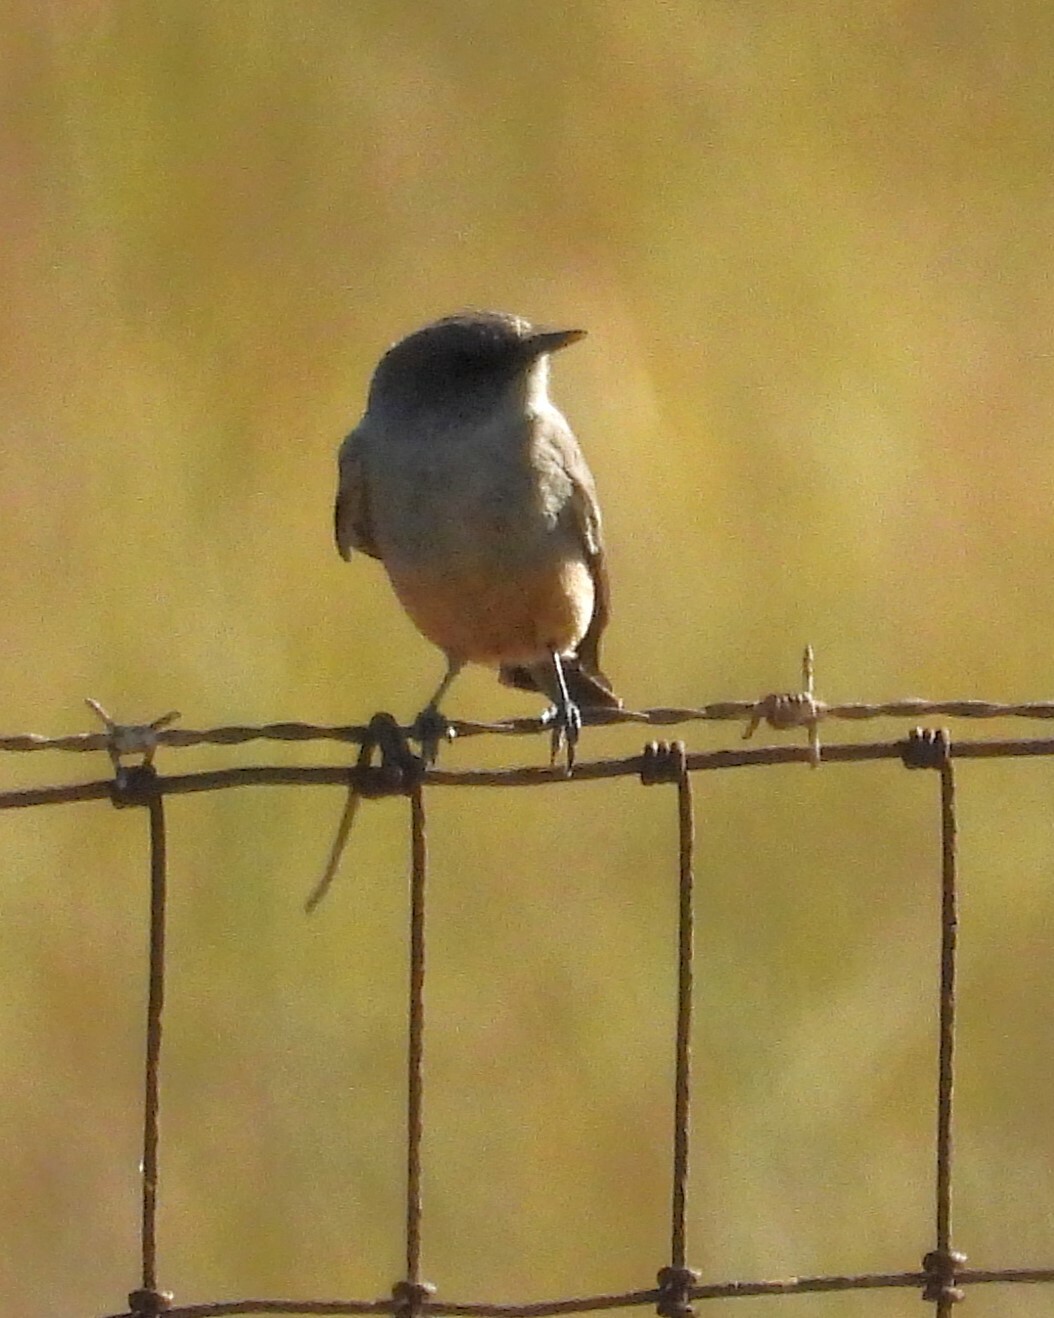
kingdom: Animalia
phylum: Chordata
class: Aves
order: Passeriformes
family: Tyrannidae
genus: Sayornis
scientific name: Sayornis saya
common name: Say's phoebe
